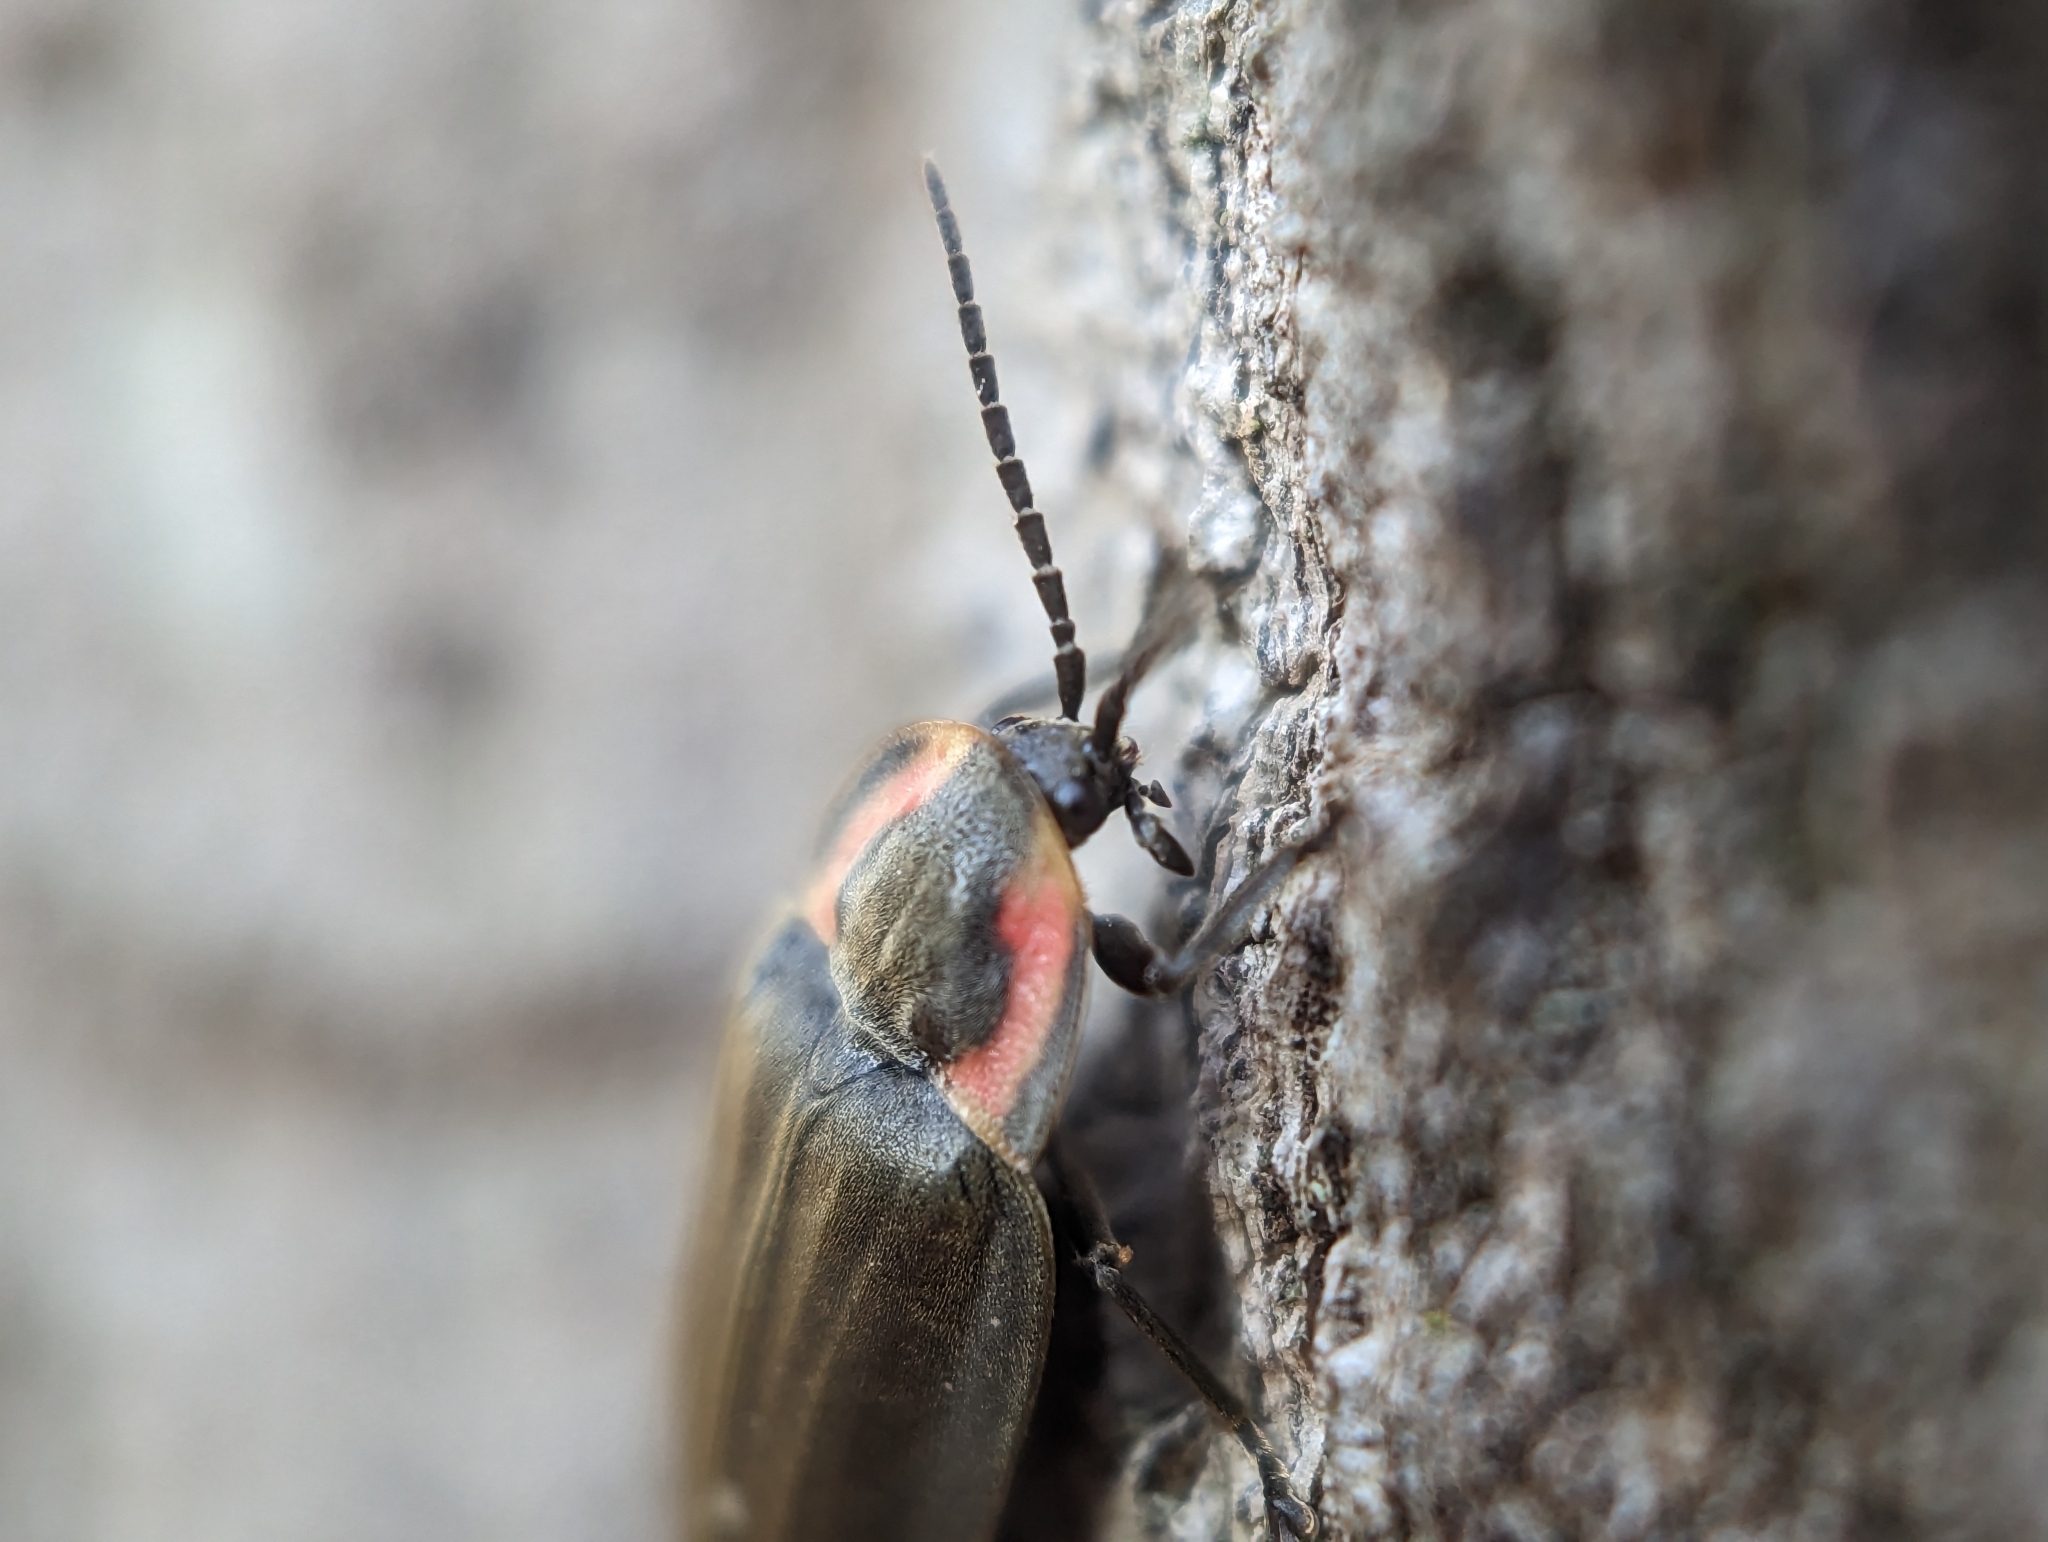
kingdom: Animalia
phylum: Arthropoda
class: Insecta
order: Coleoptera
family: Lampyridae
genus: Photinus
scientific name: Photinus corrusca
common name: Winter firefly
